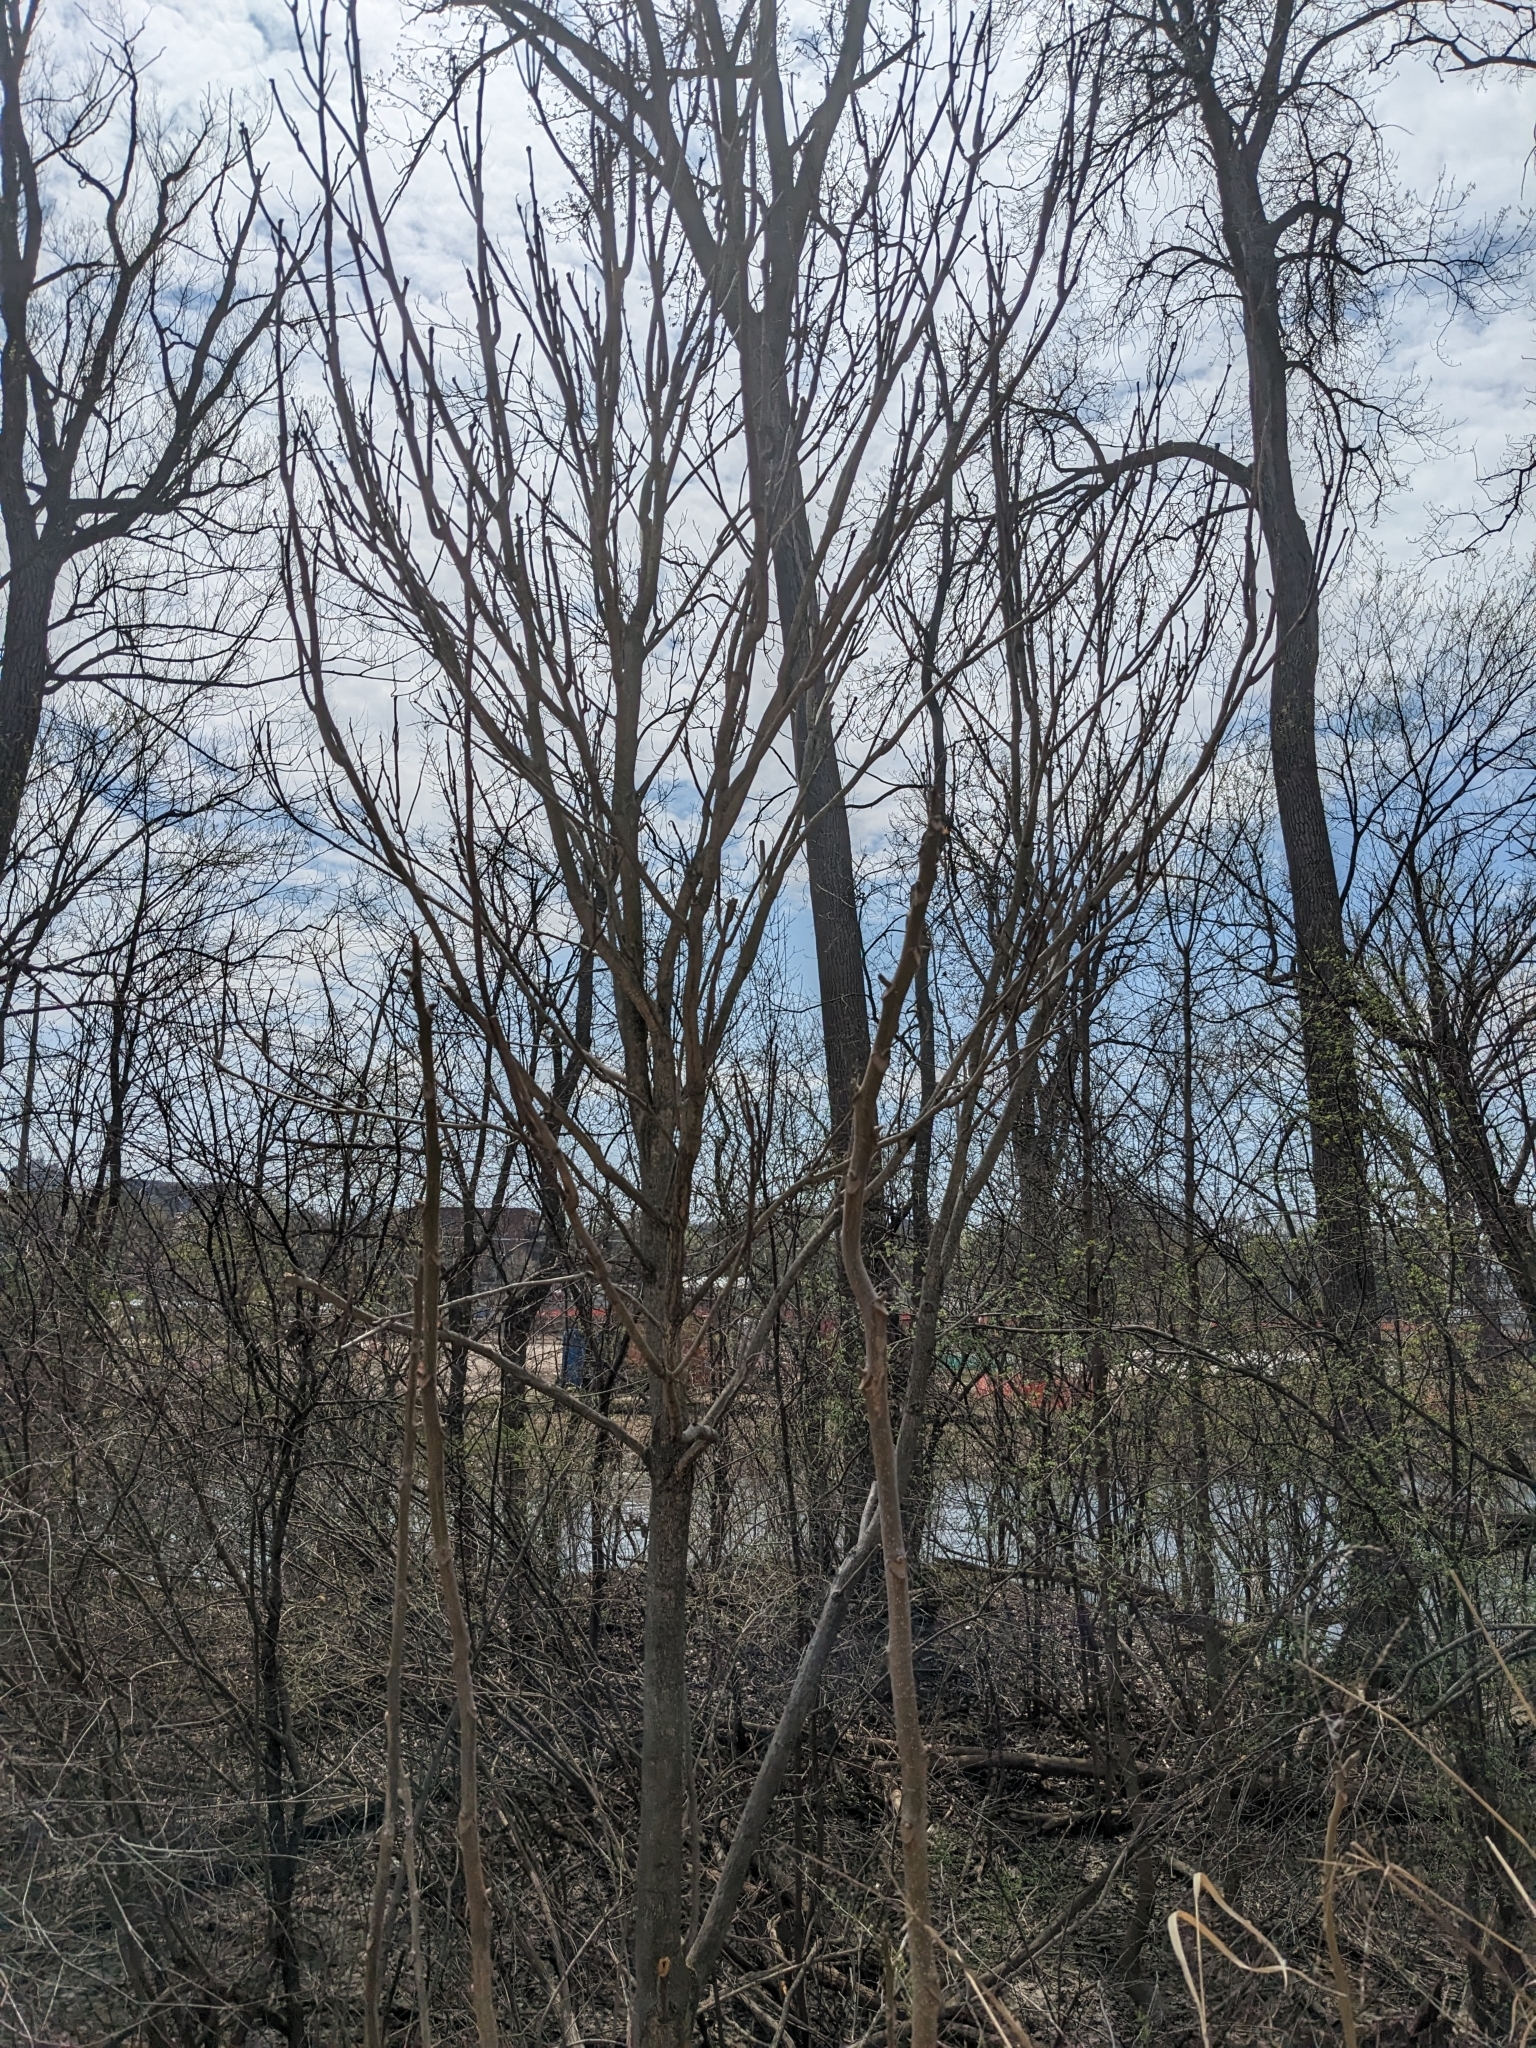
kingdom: Plantae
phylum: Tracheophyta
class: Magnoliopsida
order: Sapindales
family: Simaroubaceae
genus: Ailanthus
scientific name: Ailanthus altissima
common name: Tree-of-heaven
